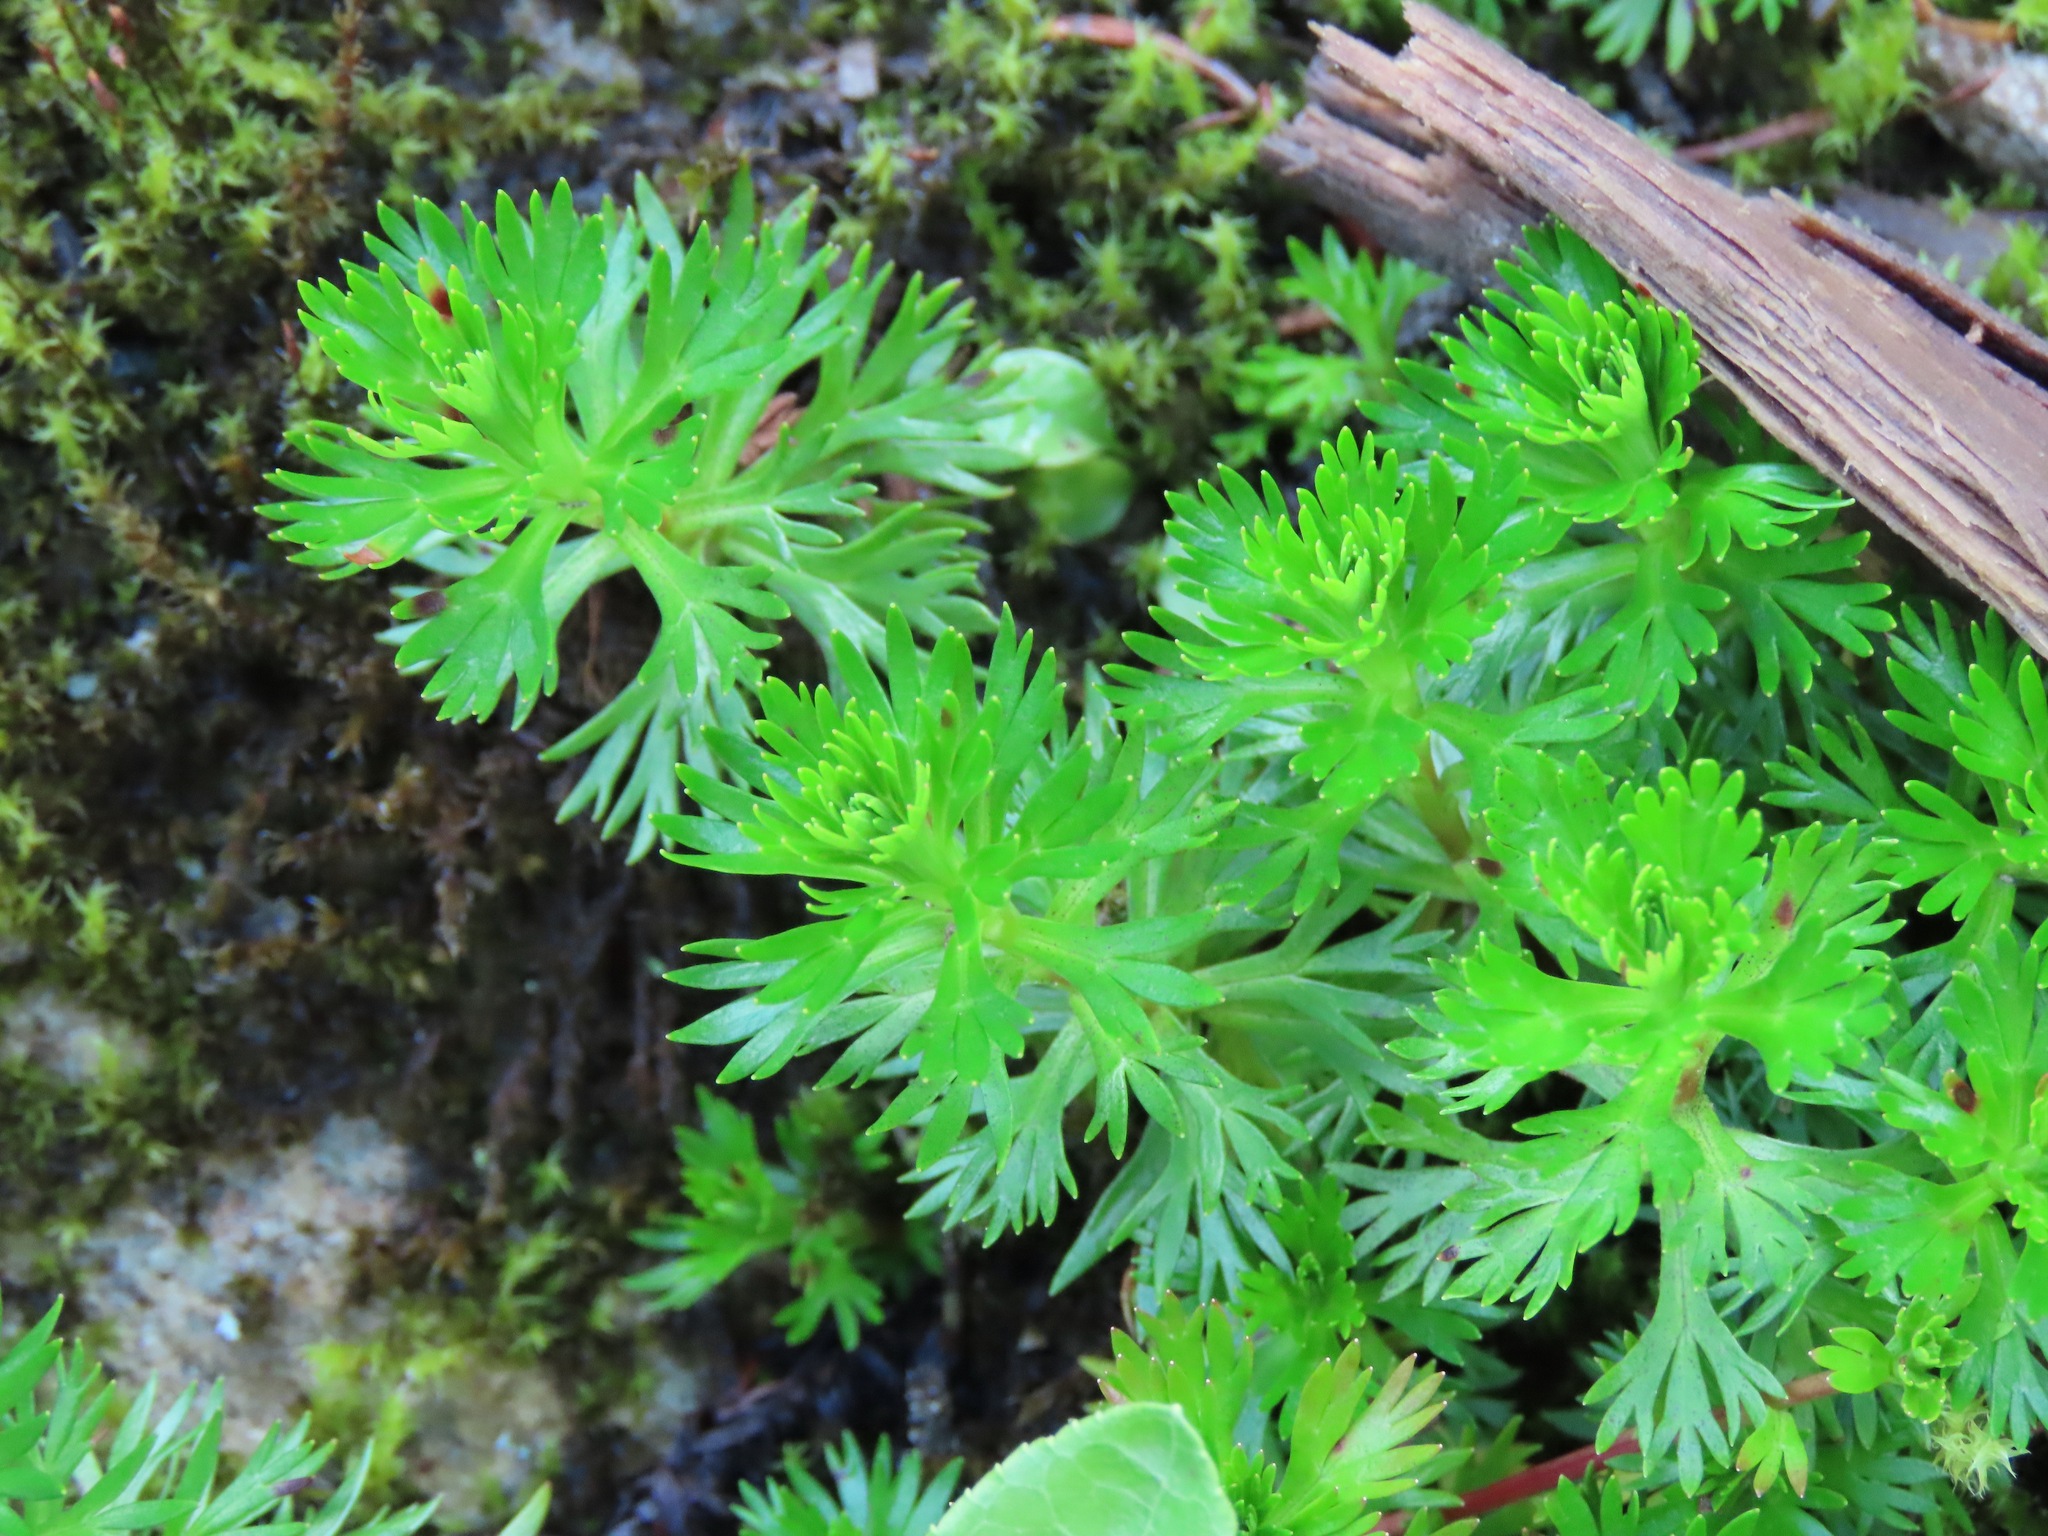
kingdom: Plantae
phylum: Tracheophyta
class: Magnoliopsida
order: Rosales
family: Rosaceae
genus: Luetkea
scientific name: Luetkea pectinata
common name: Partridgefoot
